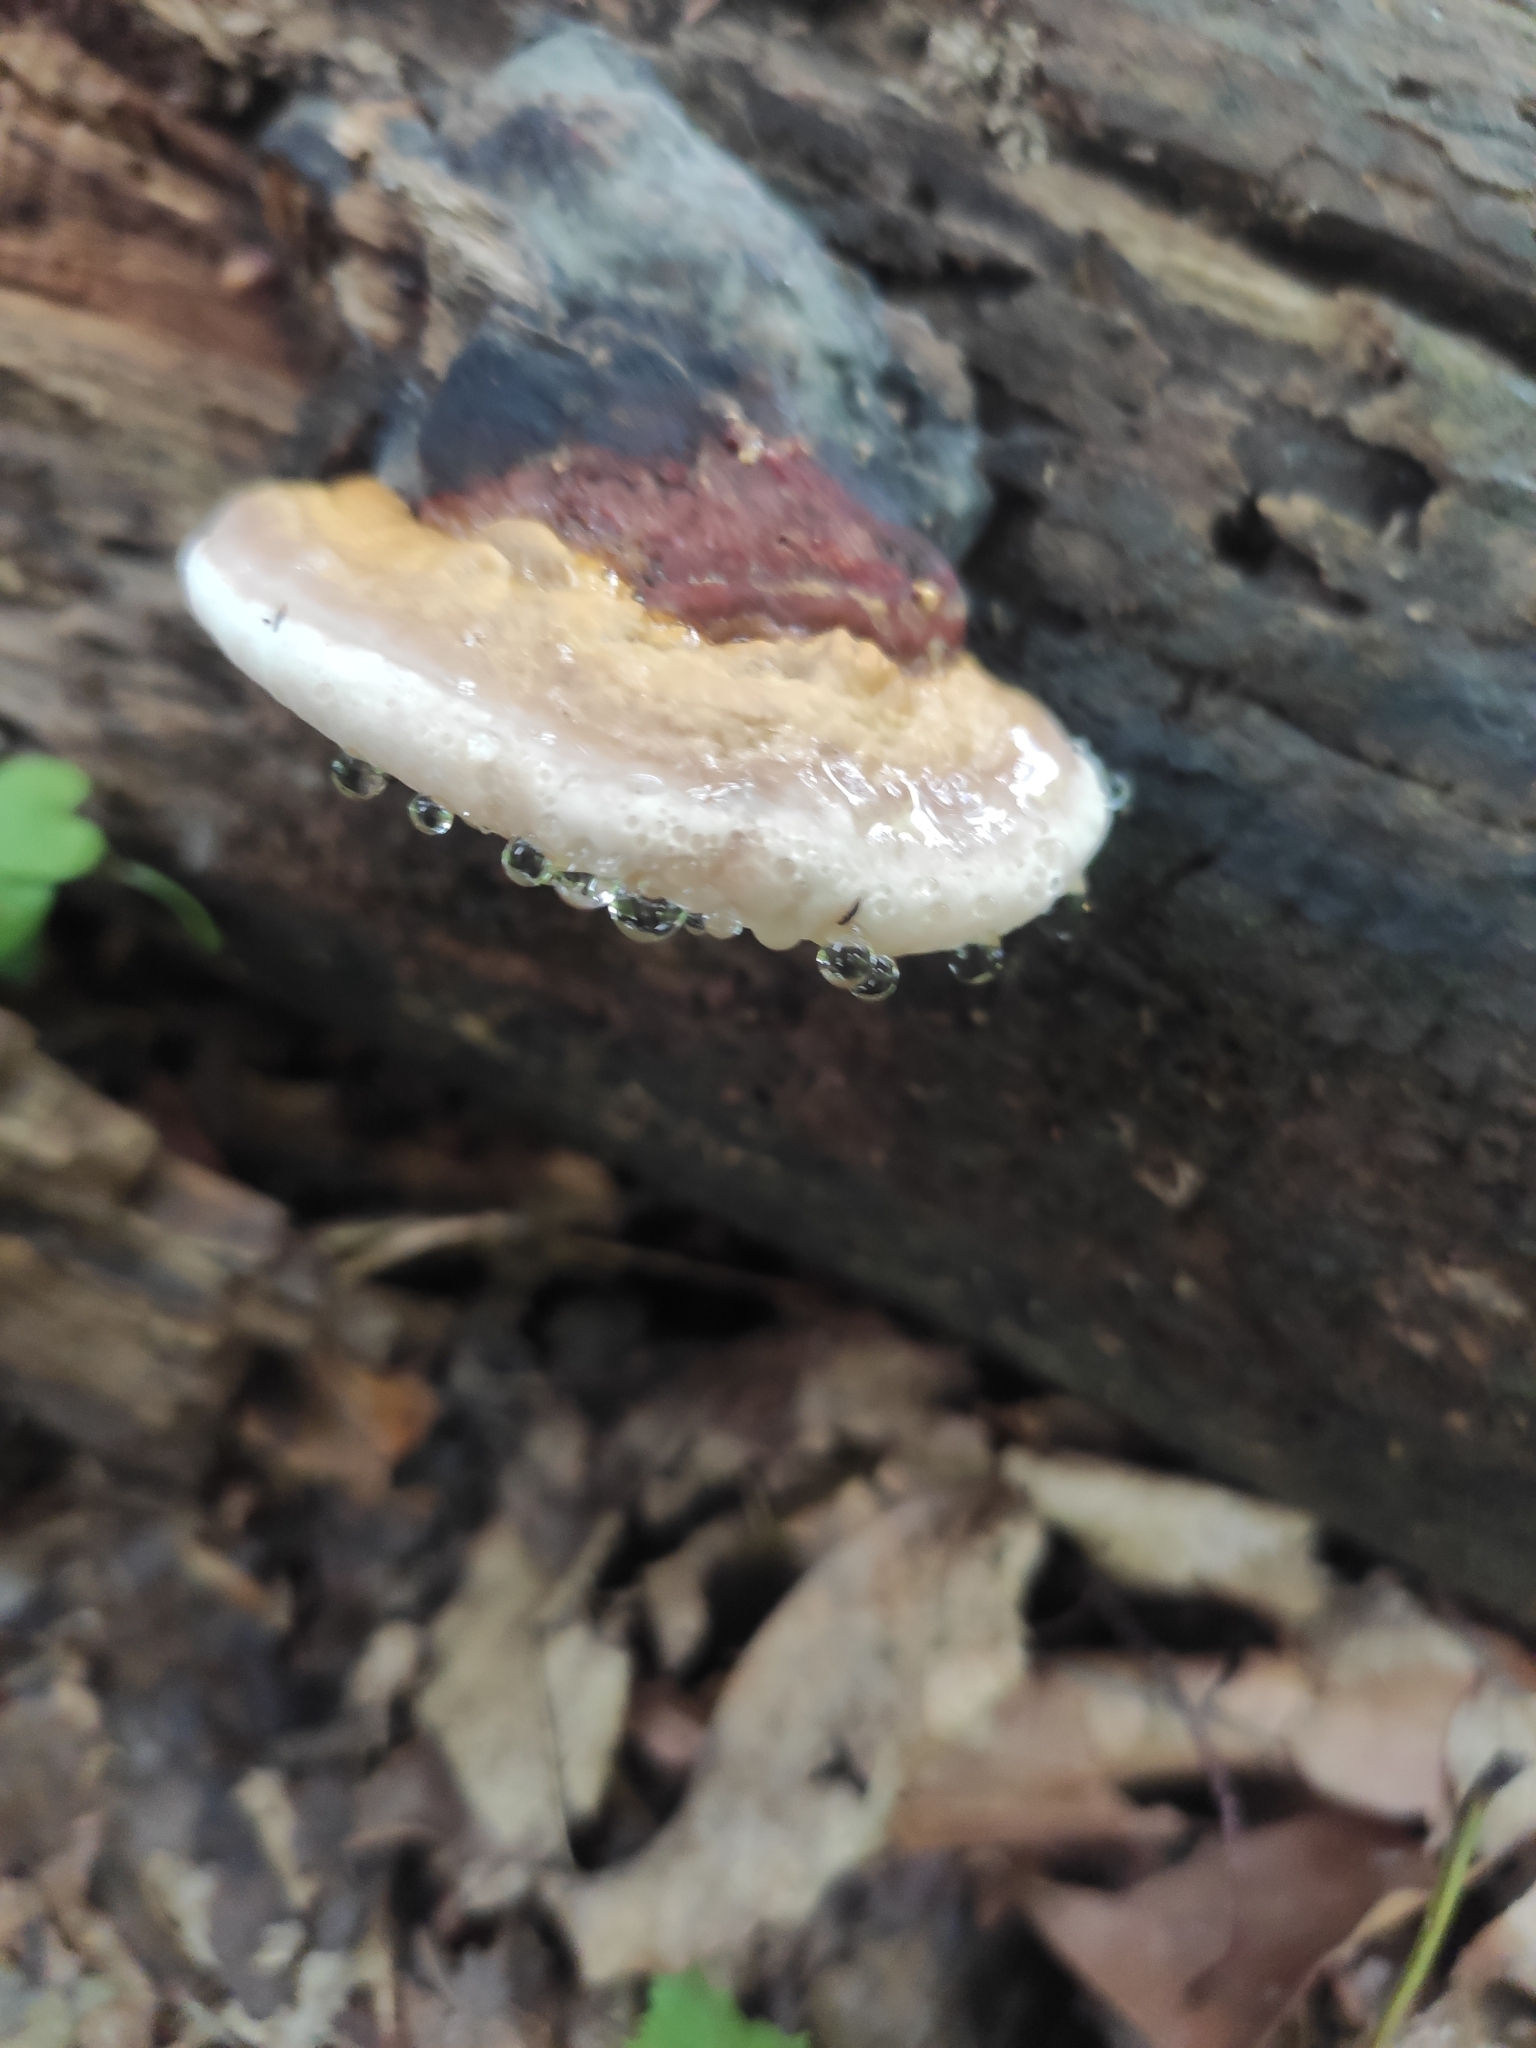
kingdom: Fungi
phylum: Basidiomycota
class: Agaricomycetes
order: Polyporales
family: Fomitopsidaceae
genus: Fomitopsis
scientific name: Fomitopsis pinicola
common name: Red-belted bracket
